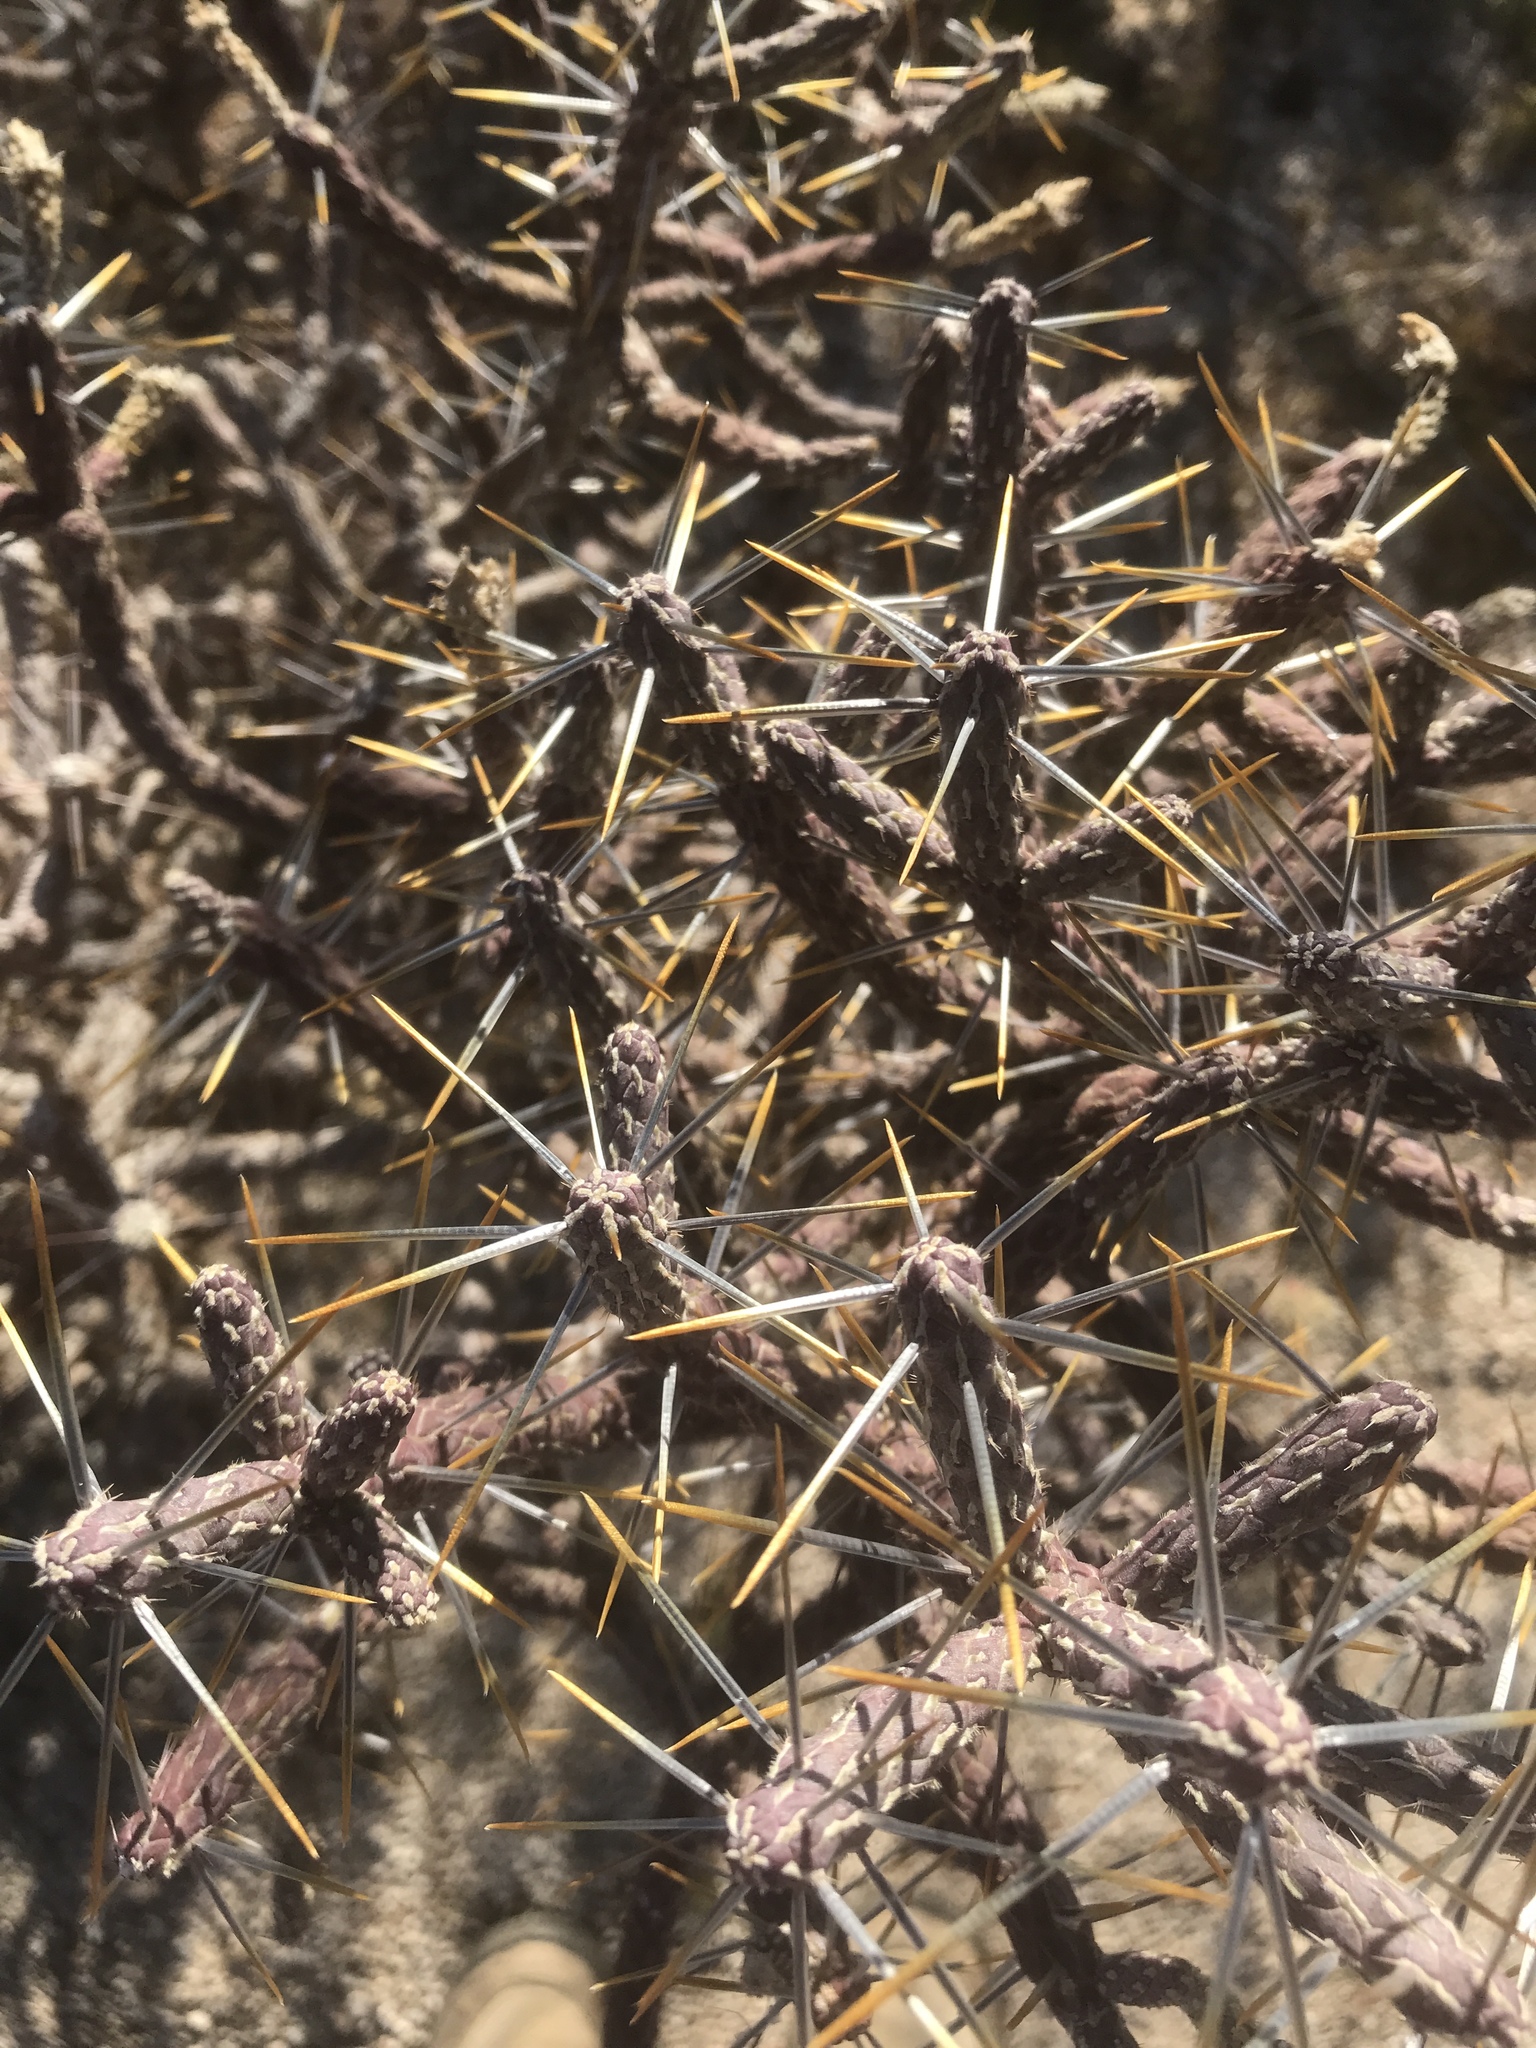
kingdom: Plantae
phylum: Tracheophyta
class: Magnoliopsida
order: Caryophyllales
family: Cactaceae
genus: Cylindropuntia
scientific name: Cylindropuntia ramosissima
